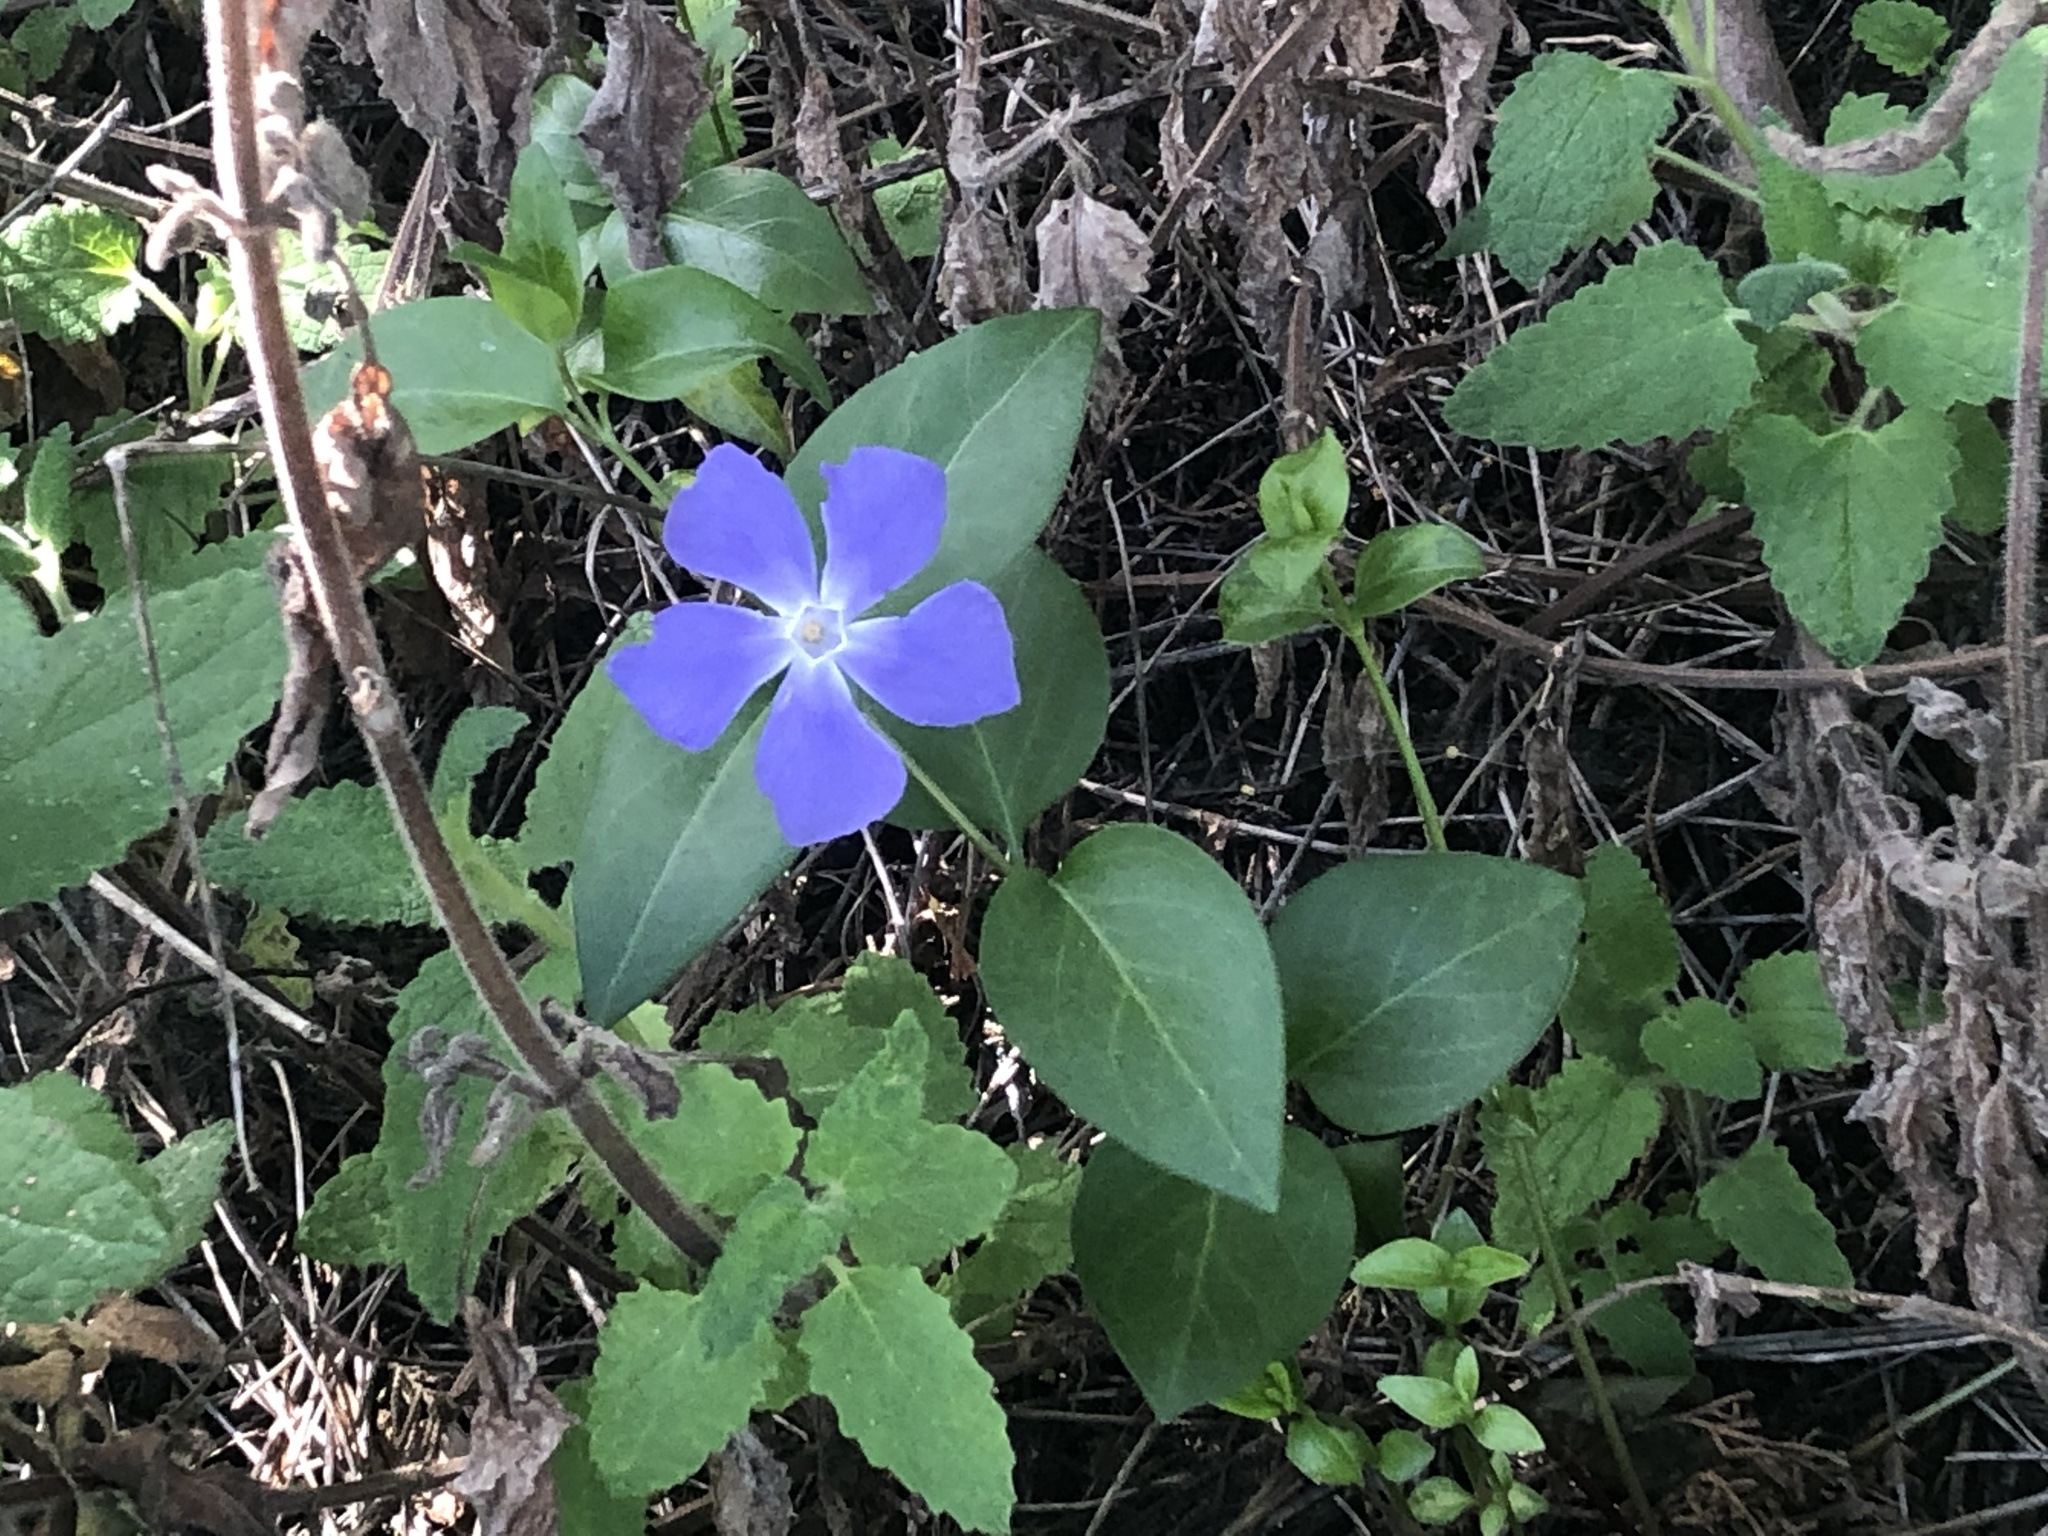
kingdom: Plantae
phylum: Tracheophyta
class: Magnoliopsida
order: Gentianales
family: Apocynaceae
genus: Vinca
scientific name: Vinca major
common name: Greater periwinkle
